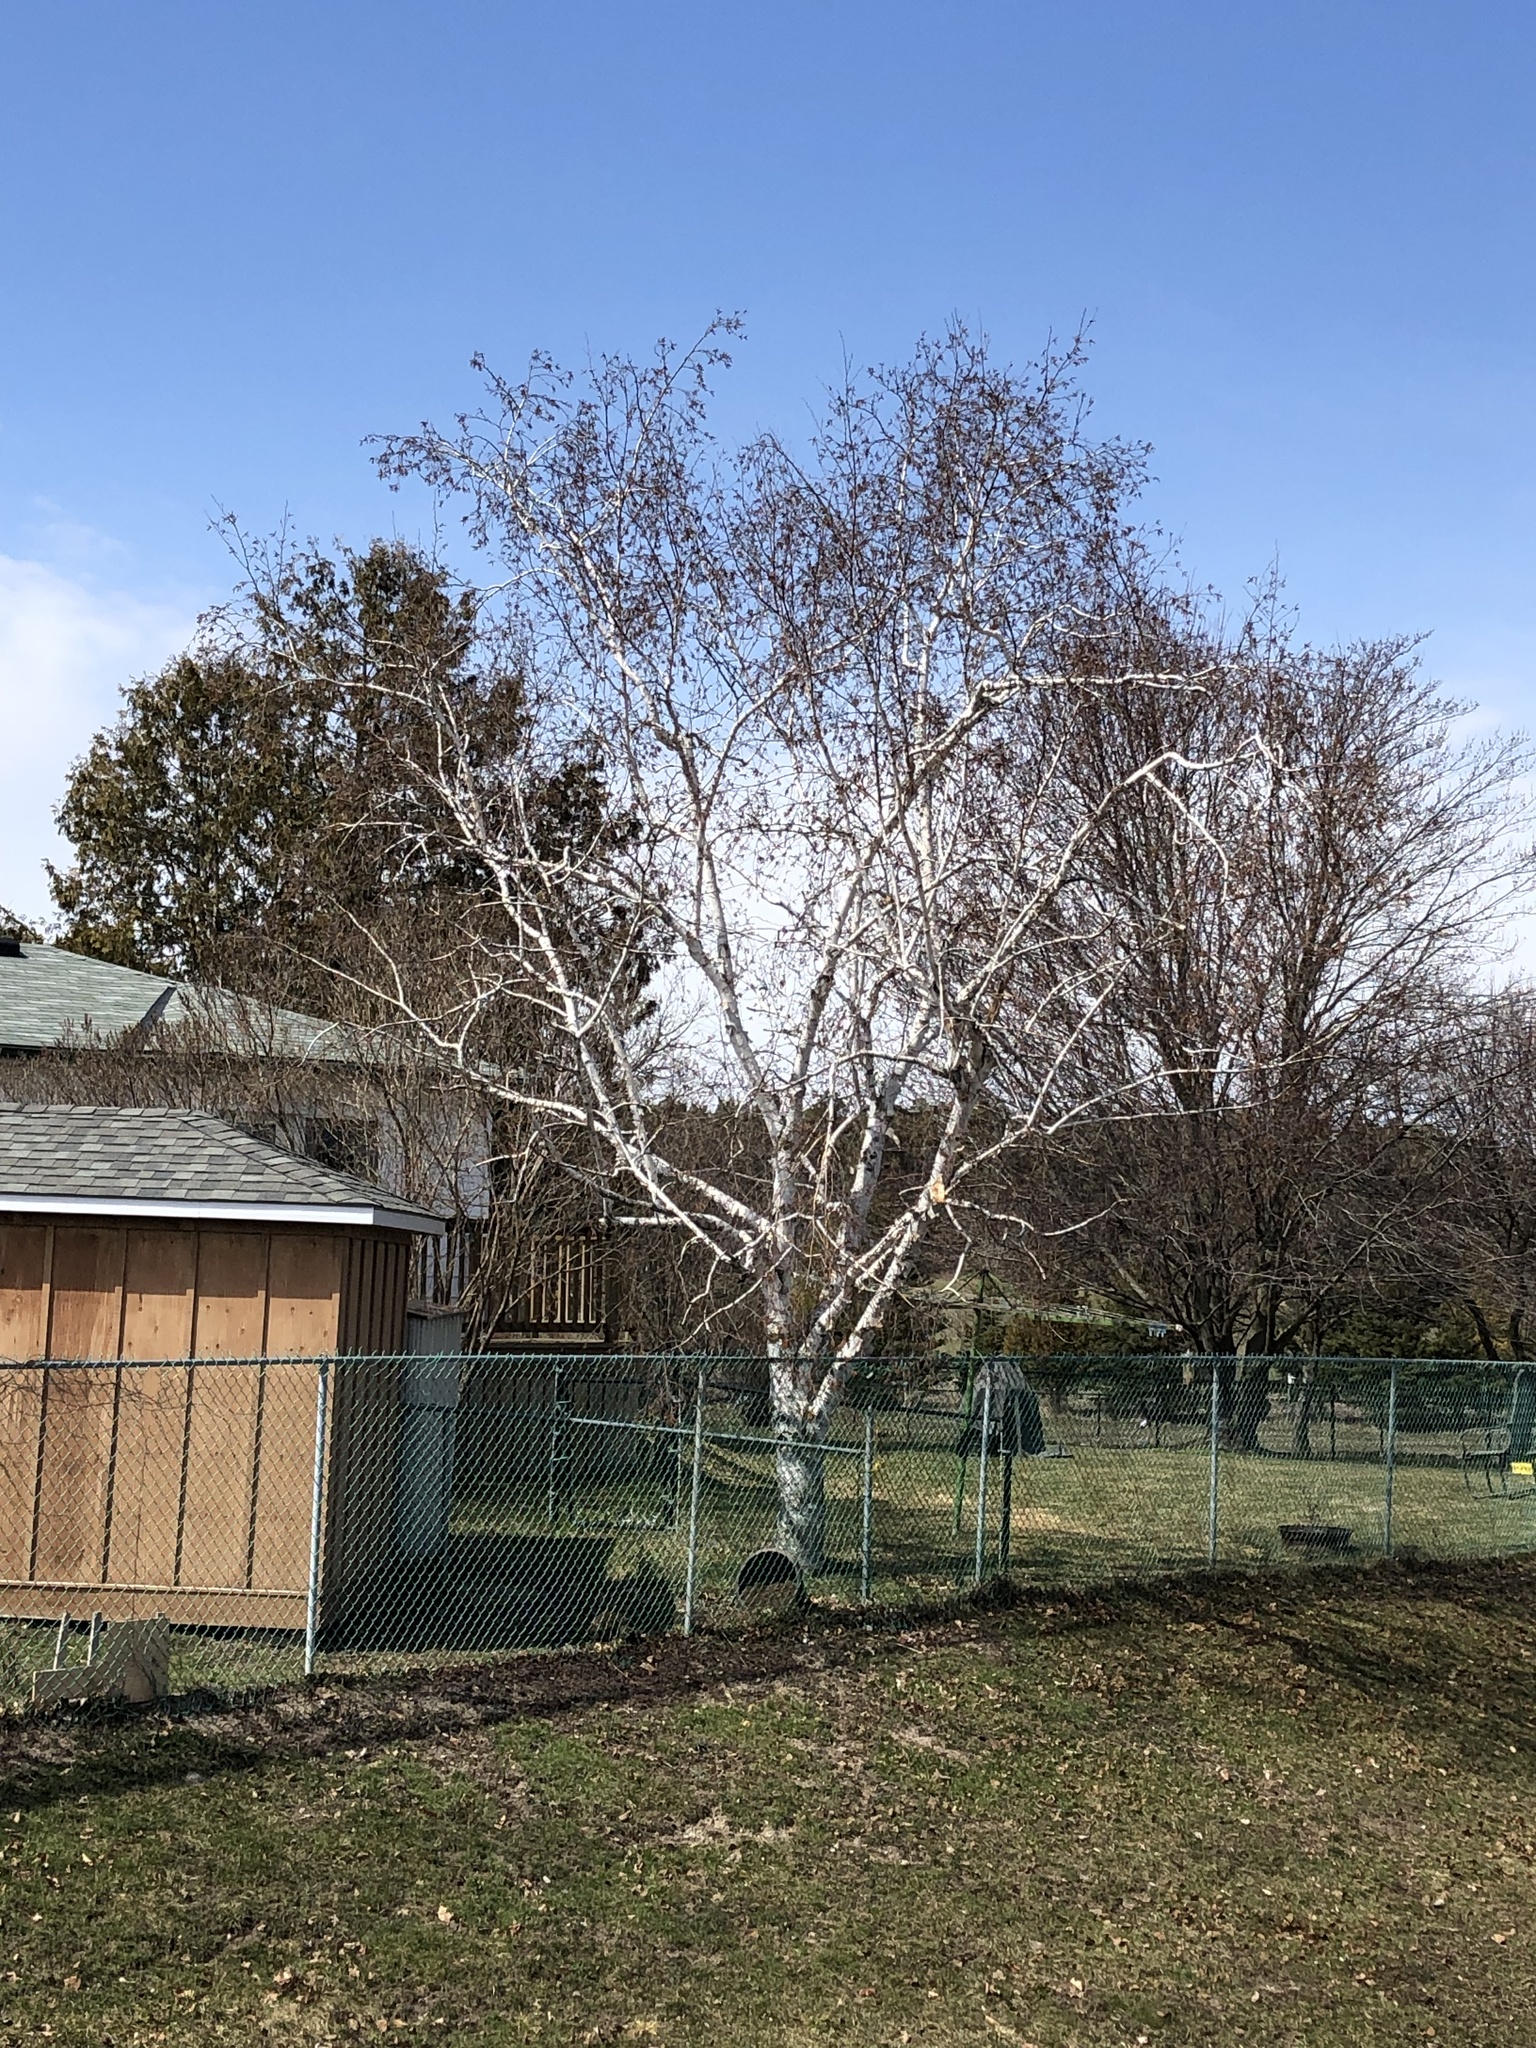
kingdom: Plantae
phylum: Tracheophyta
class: Magnoliopsida
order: Fagales
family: Betulaceae
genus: Betula
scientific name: Betula papyrifera
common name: Paper birch
